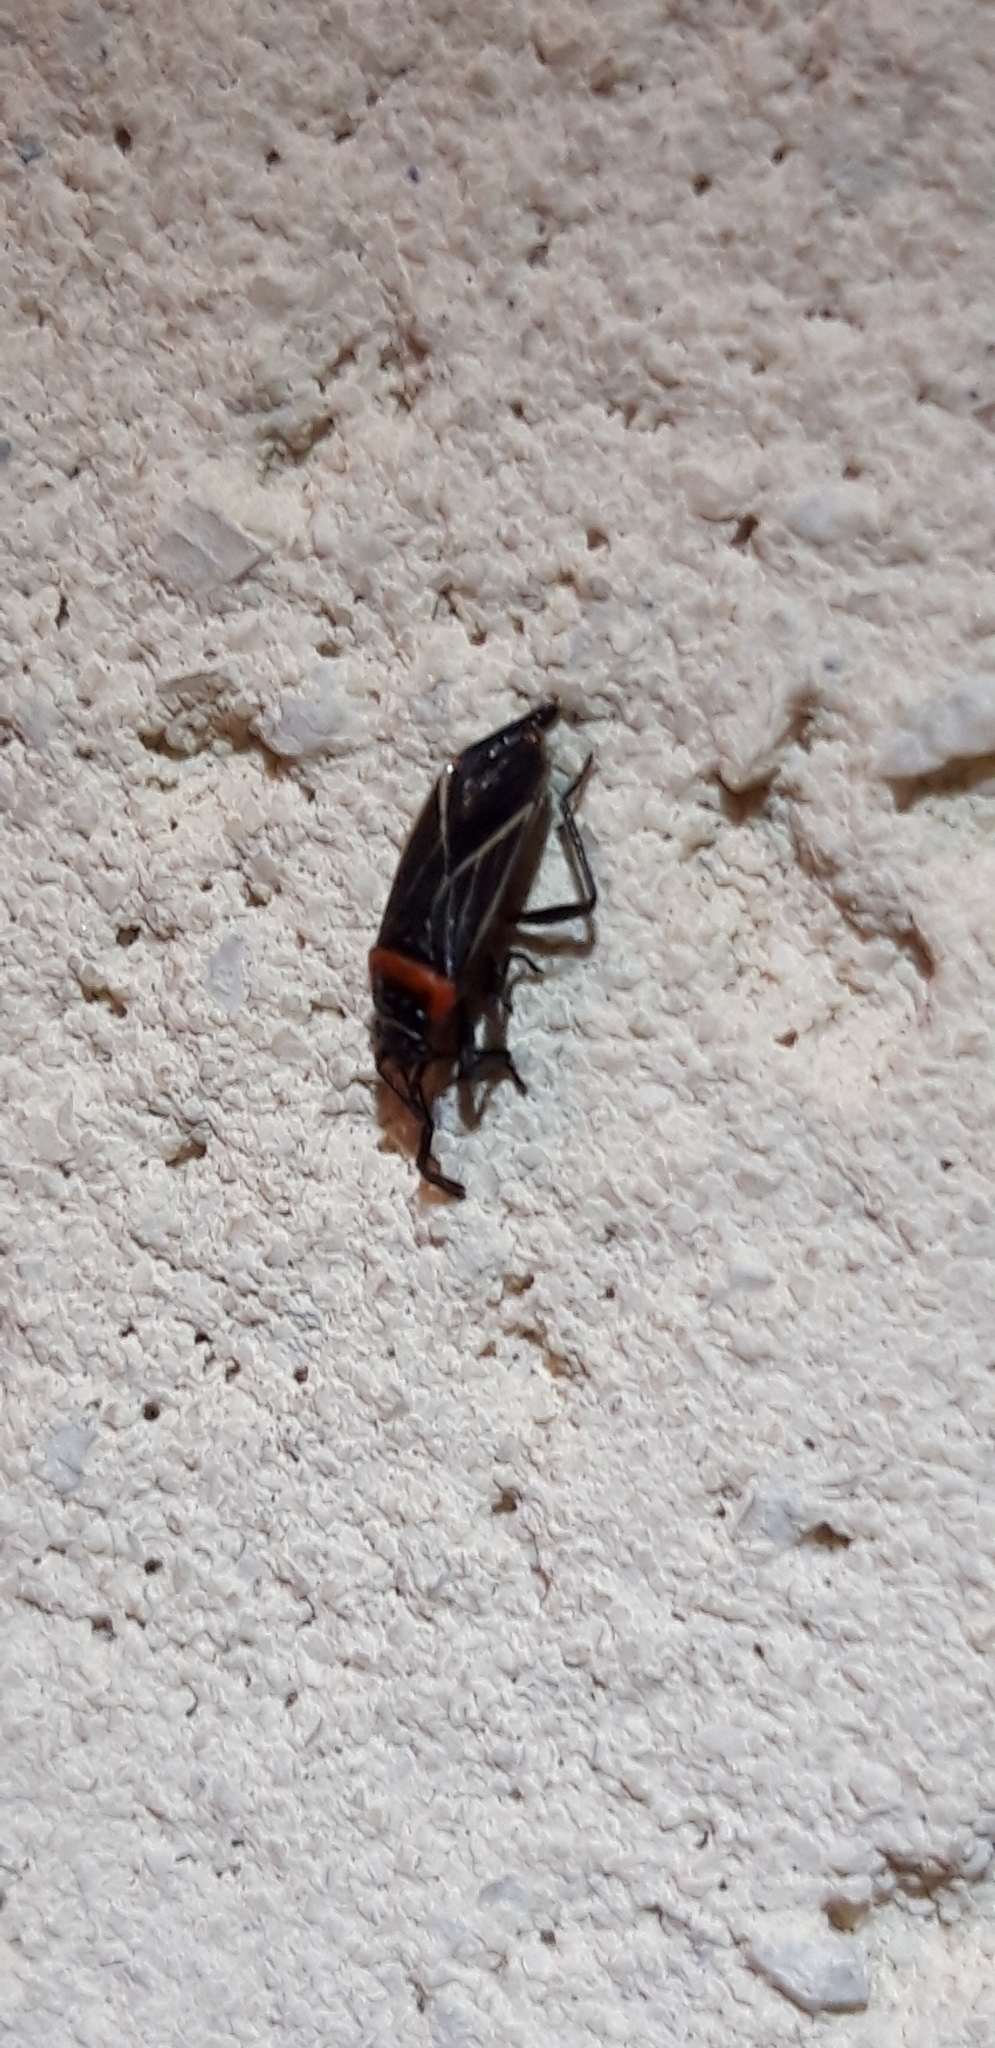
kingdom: Animalia
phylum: Arthropoda
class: Insecta
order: Hemiptera
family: Lygaeidae
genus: Ochrimnus
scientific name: Ochrimnus laevus
